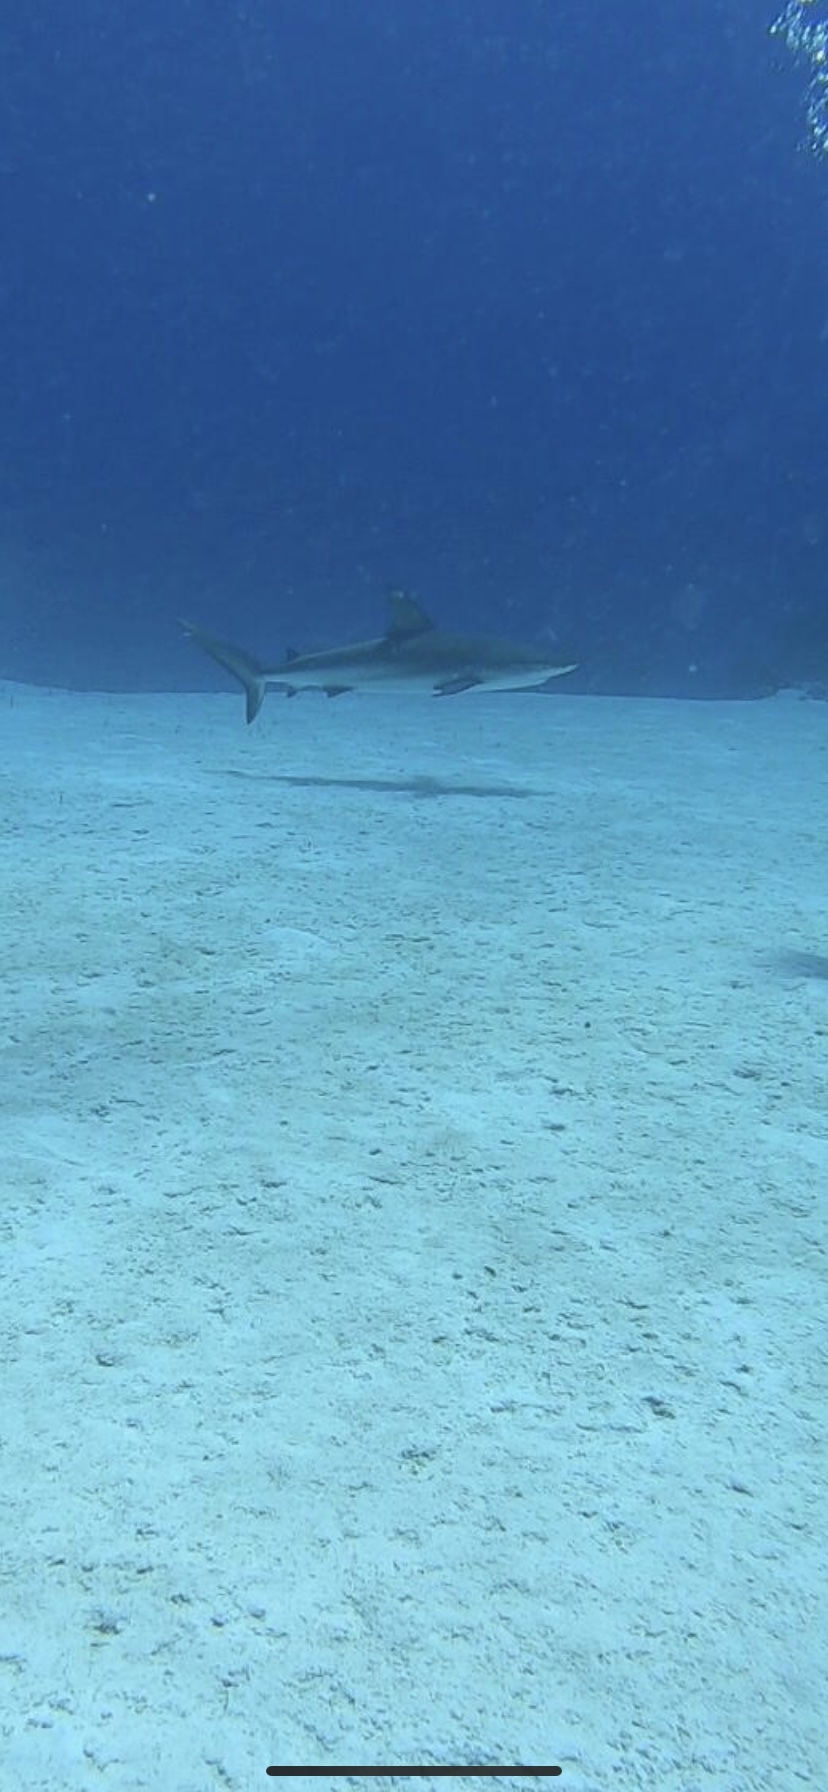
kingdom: Animalia
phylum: Chordata
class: Elasmobranchii
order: Carcharhiniformes
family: Carcharhinidae
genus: Carcharhinus
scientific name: Carcharhinus perezii
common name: Reef shark
